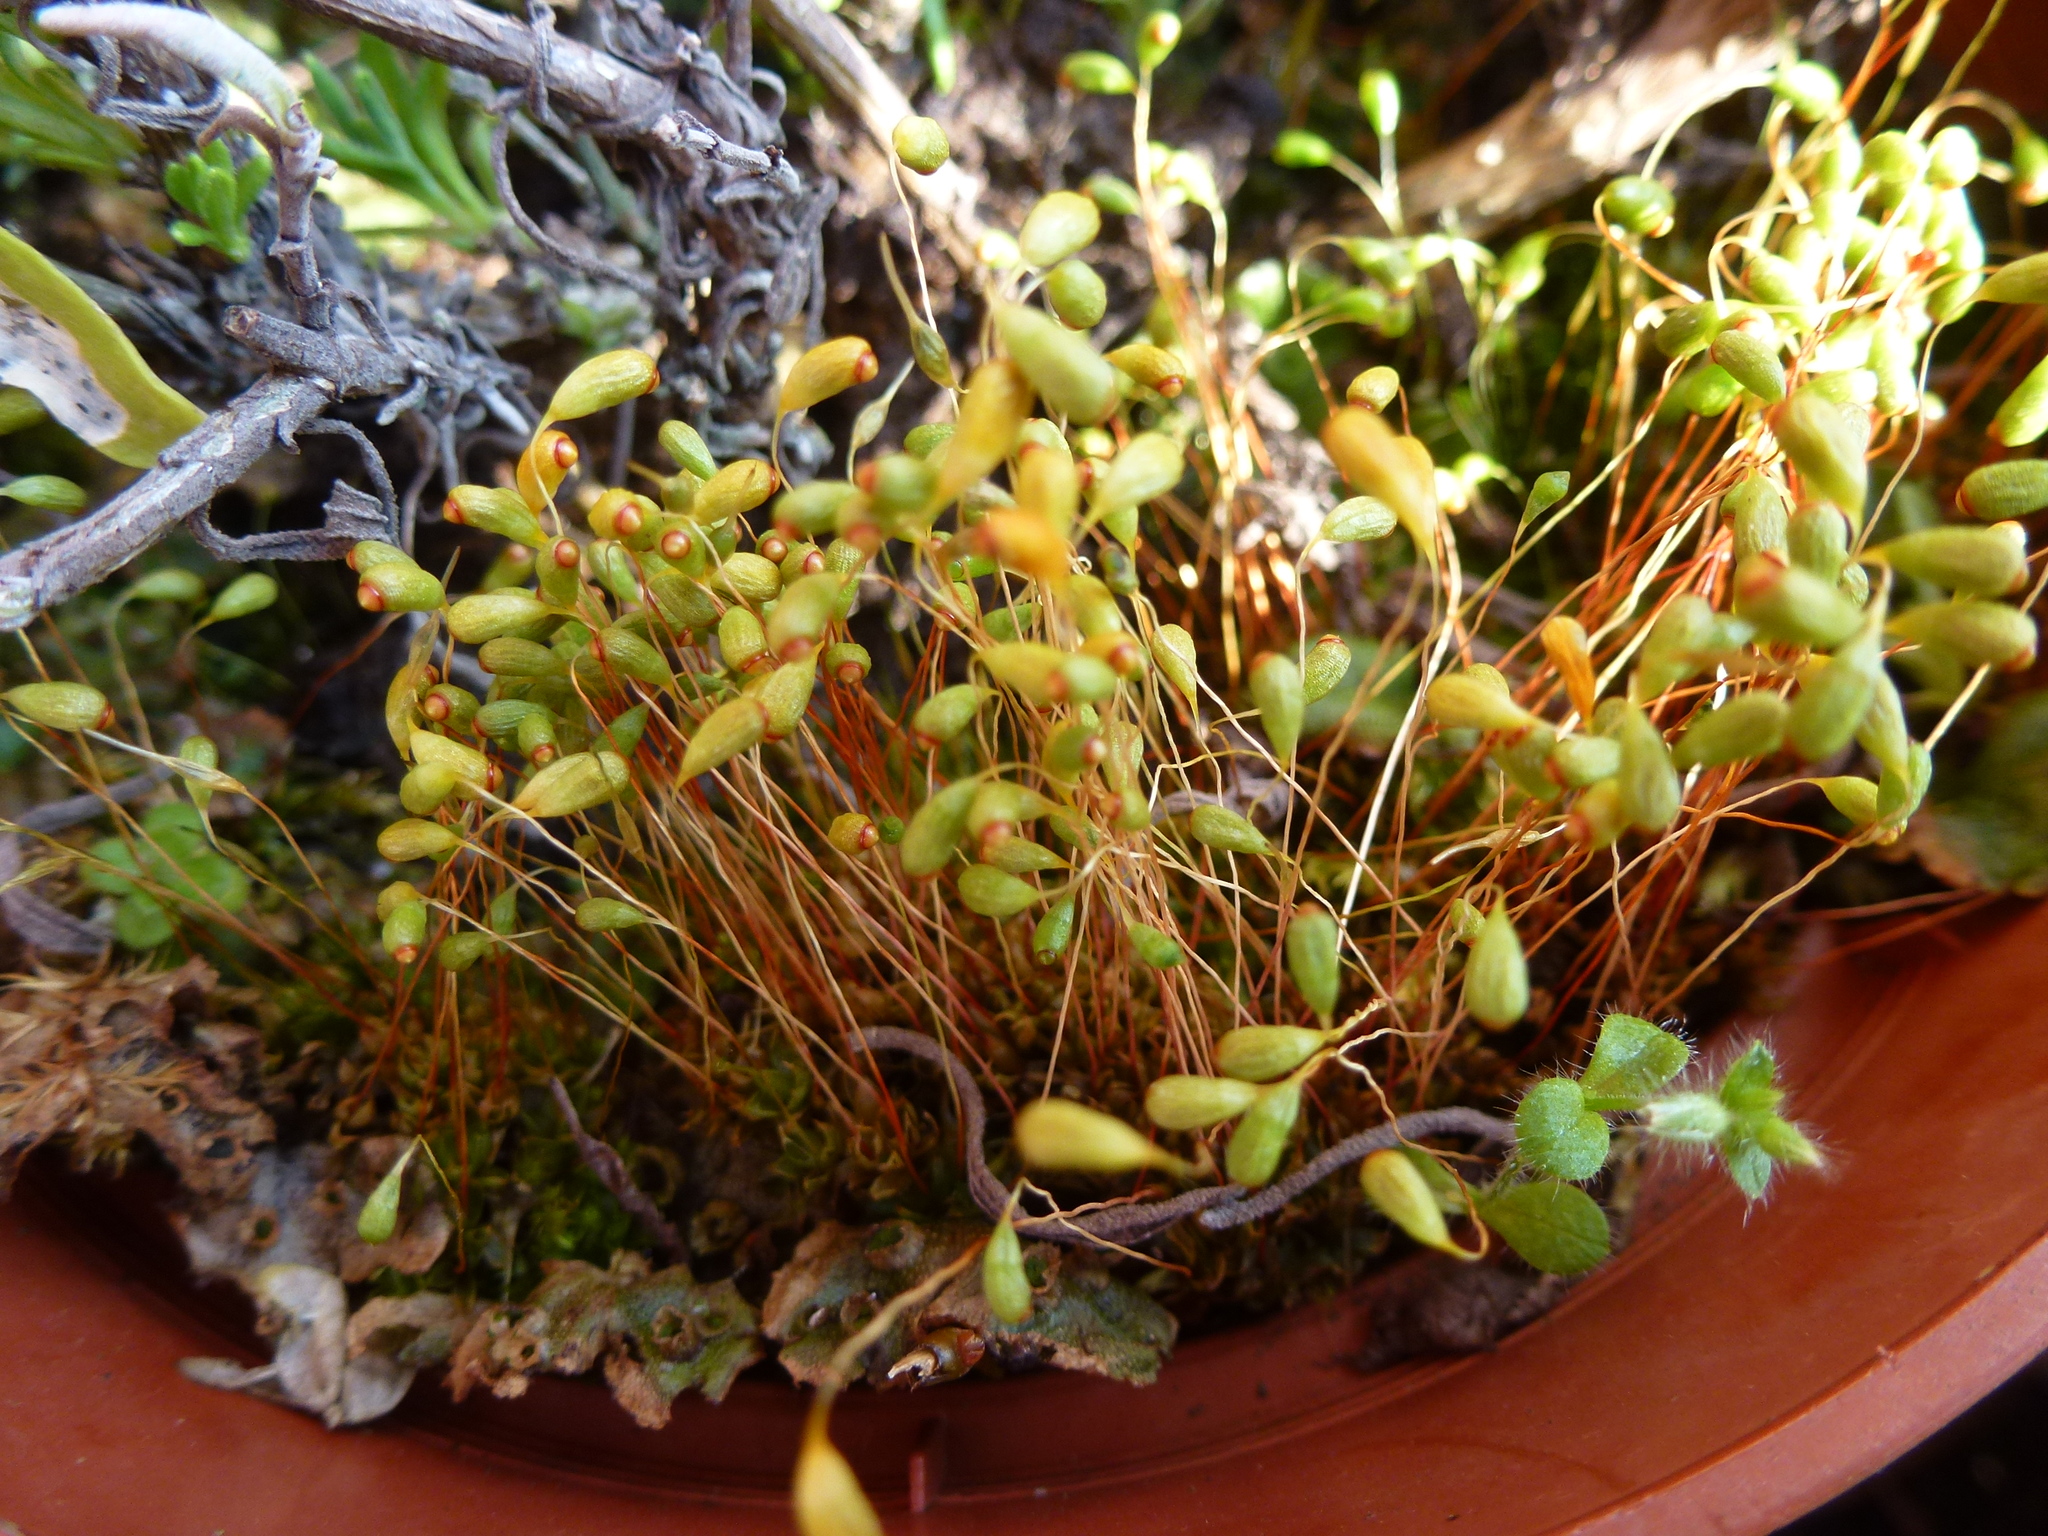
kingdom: Plantae
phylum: Bryophyta
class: Bryopsida
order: Funariales
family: Funariaceae
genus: Funaria
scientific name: Funaria hygrometrica
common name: Common cord moss
